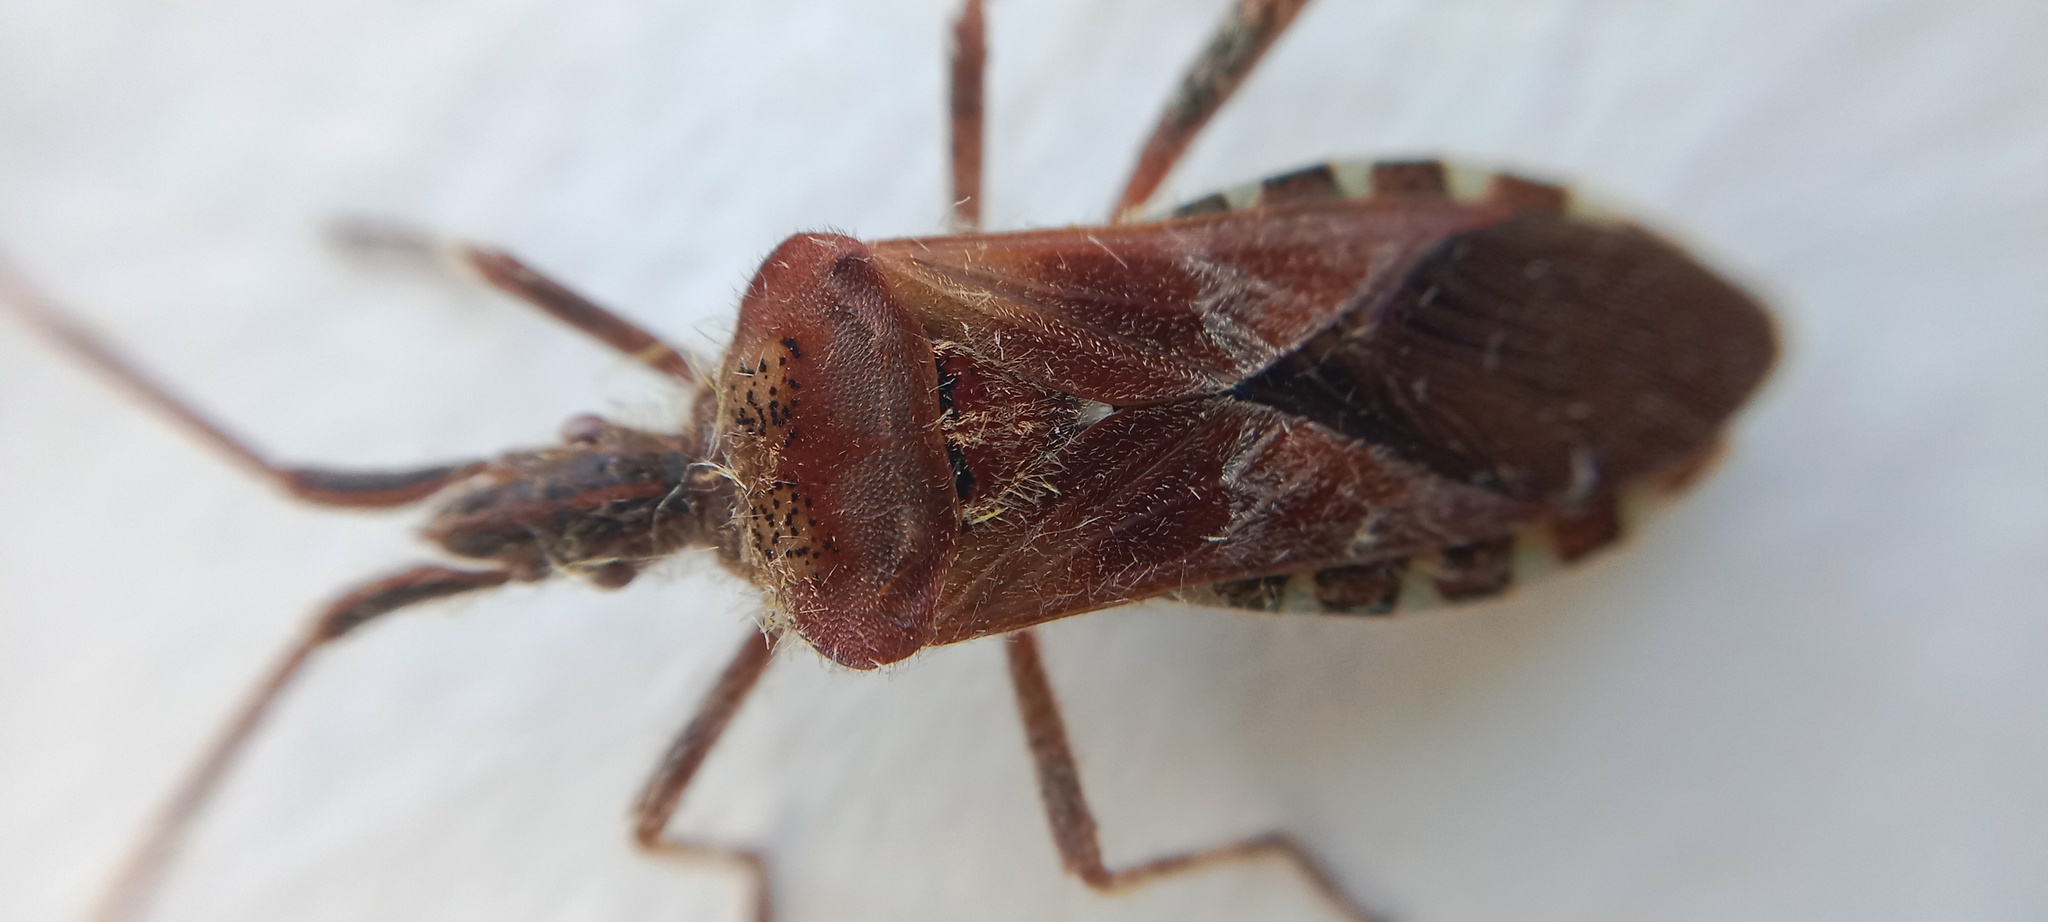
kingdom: Animalia
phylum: Arthropoda
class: Insecta
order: Hemiptera
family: Coreidae
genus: Leptoglossus
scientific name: Leptoglossus occidentalis
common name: Western conifer-seed bug
